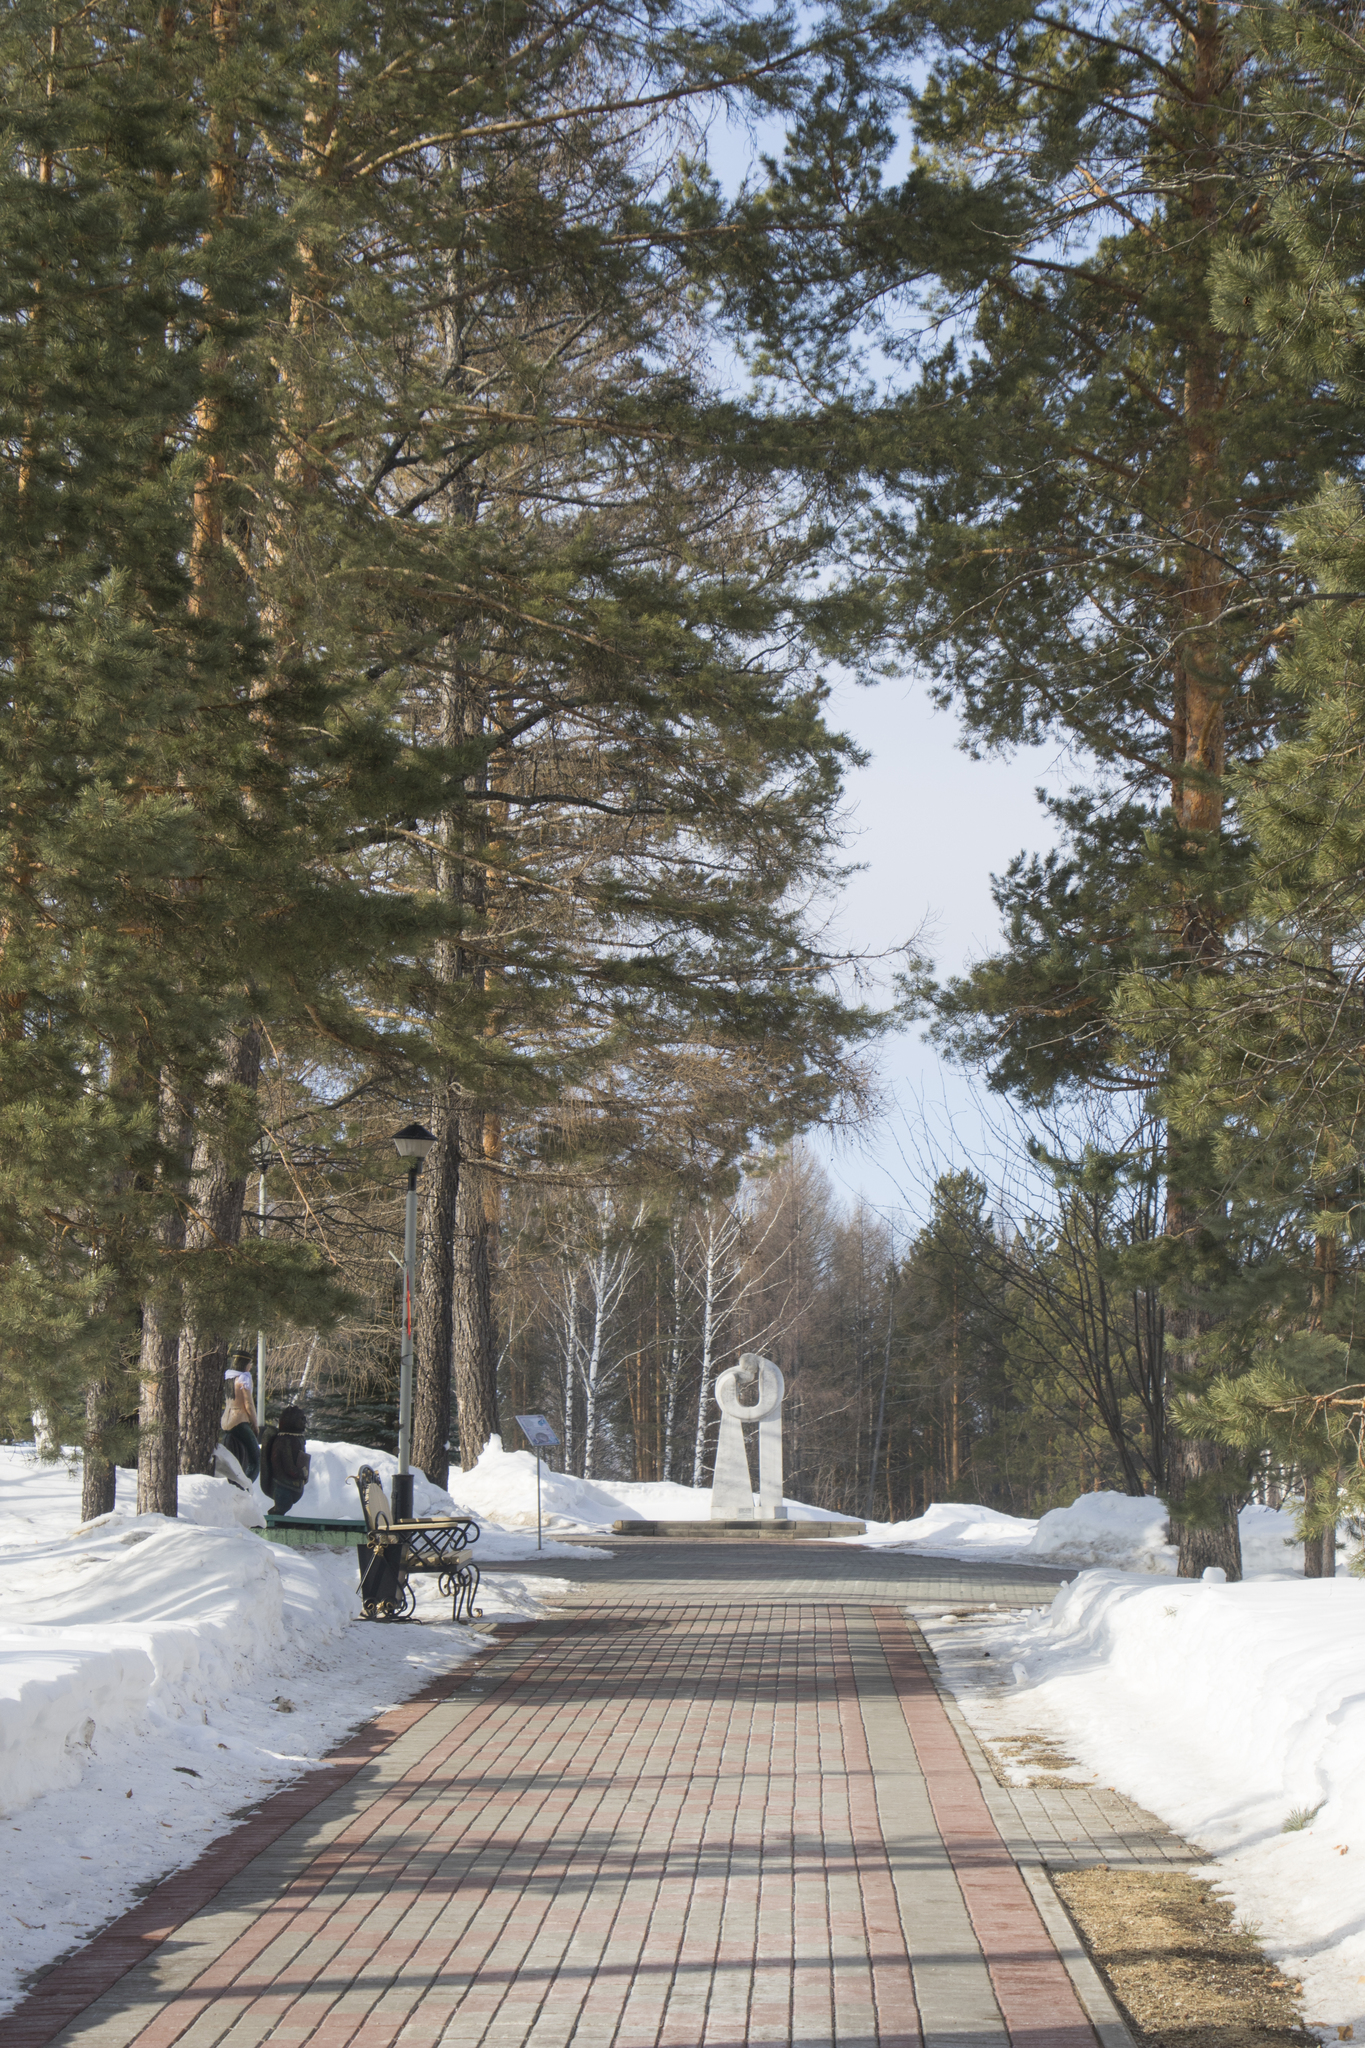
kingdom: Plantae
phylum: Tracheophyta
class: Pinopsida
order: Pinales
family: Pinaceae
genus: Pinus
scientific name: Pinus sylvestris
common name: Scots pine
